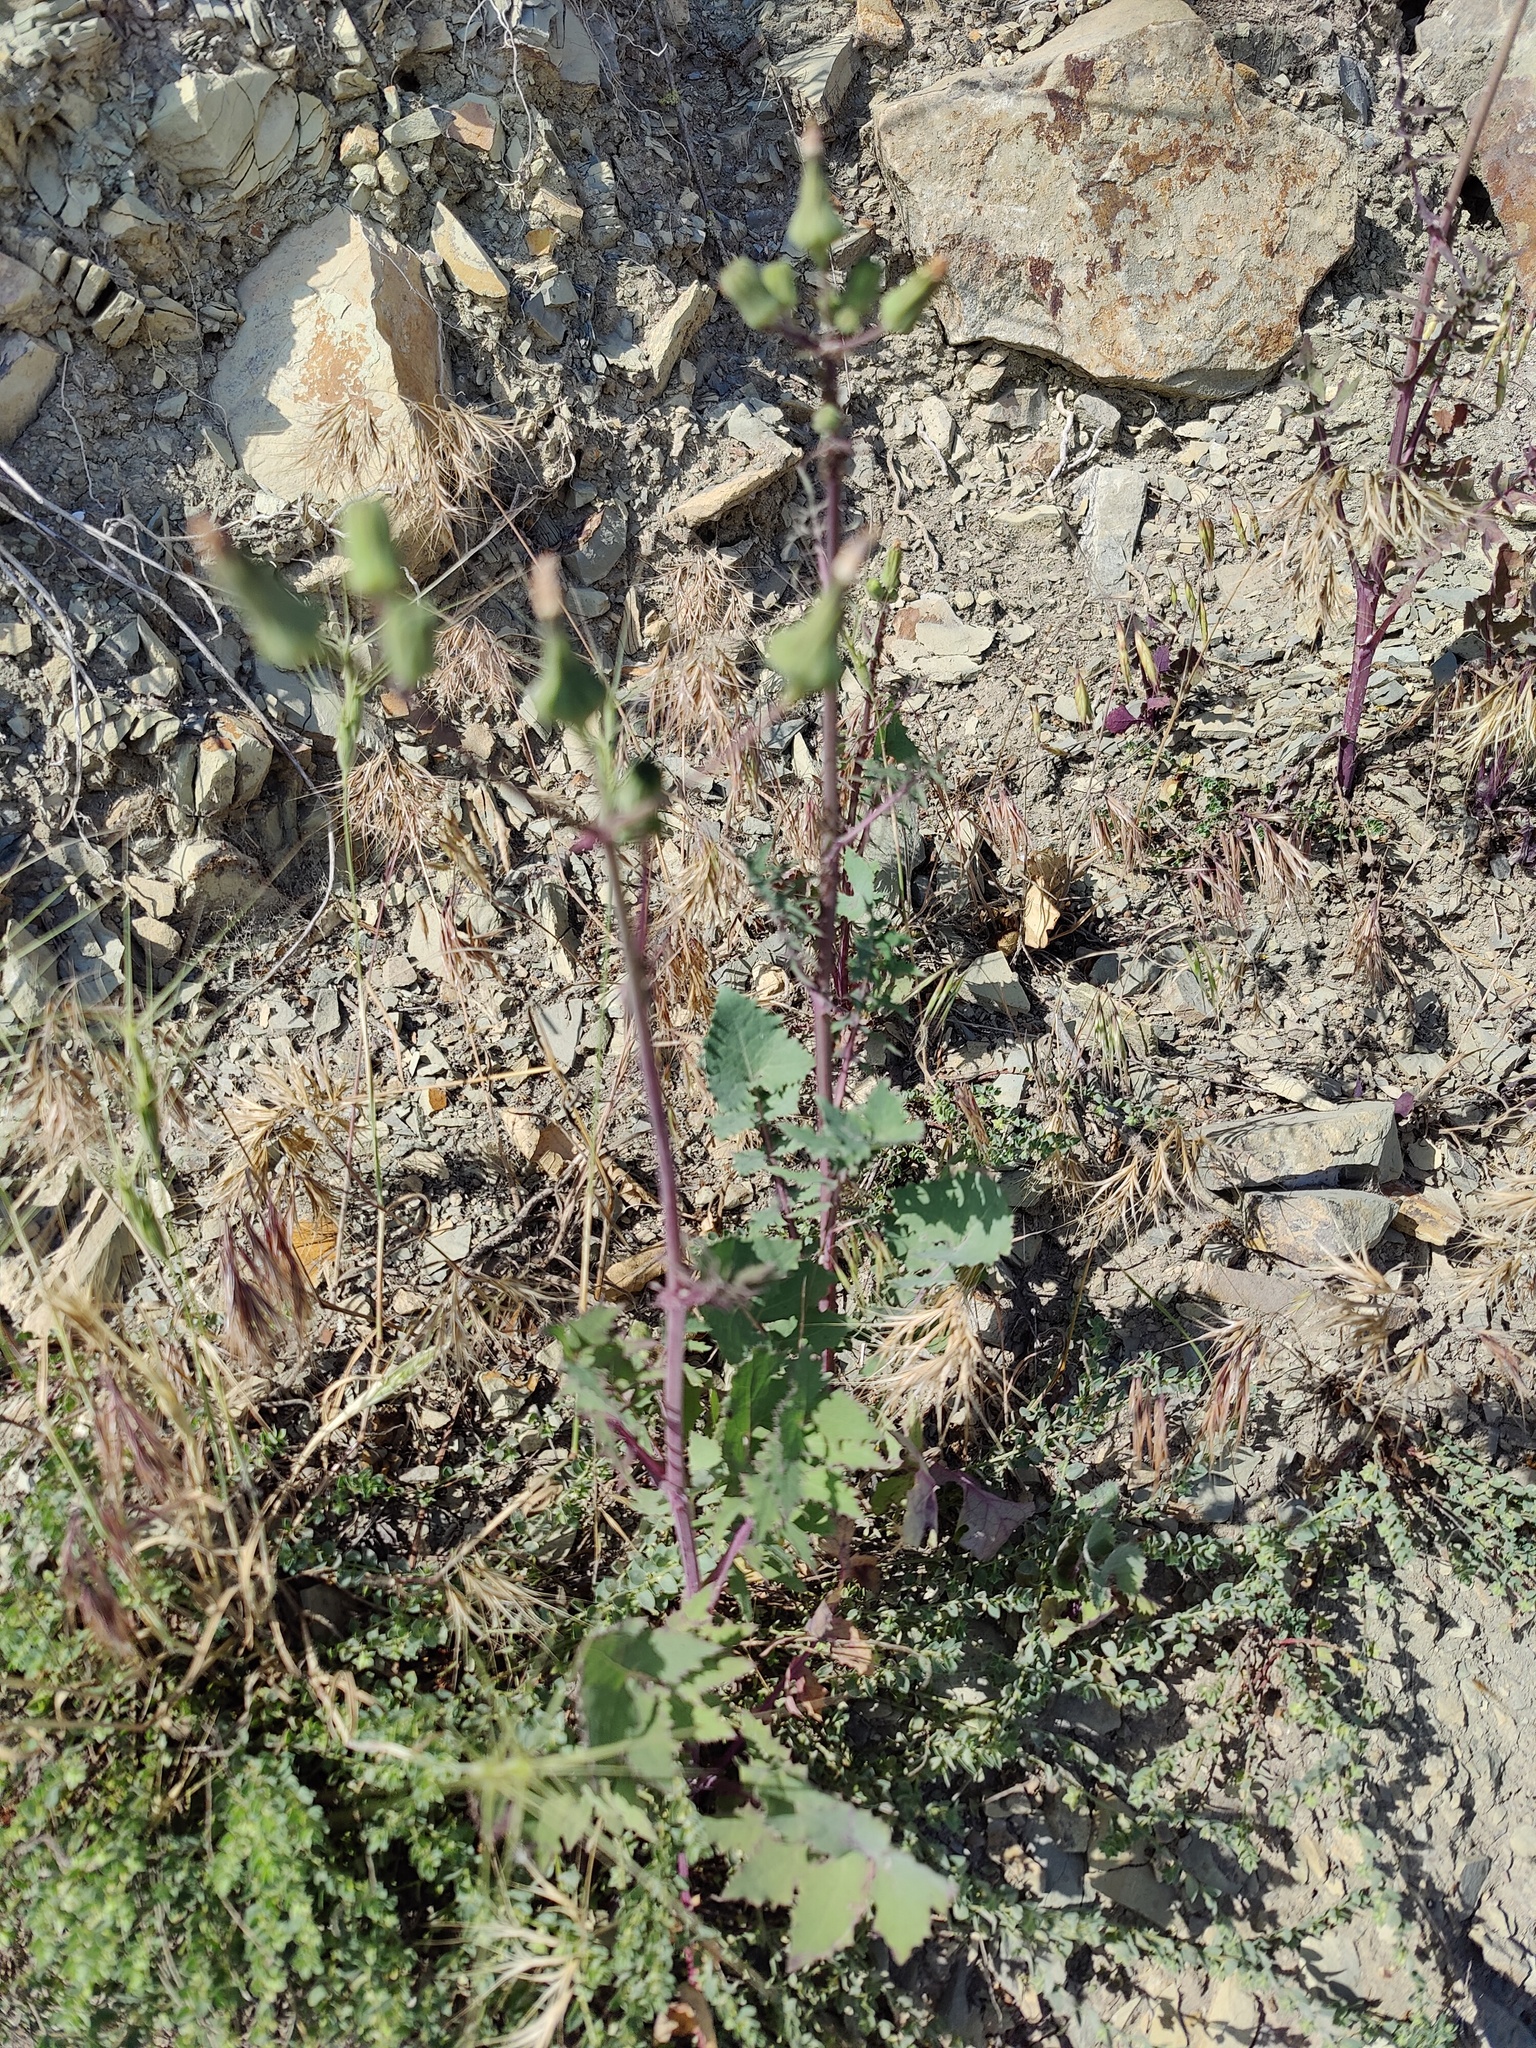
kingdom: Plantae
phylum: Tracheophyta
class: Magnoliopsida
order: Asterales
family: Asteraceae
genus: Sonchus
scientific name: Sonchus oleraceus
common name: Common sowthistle
